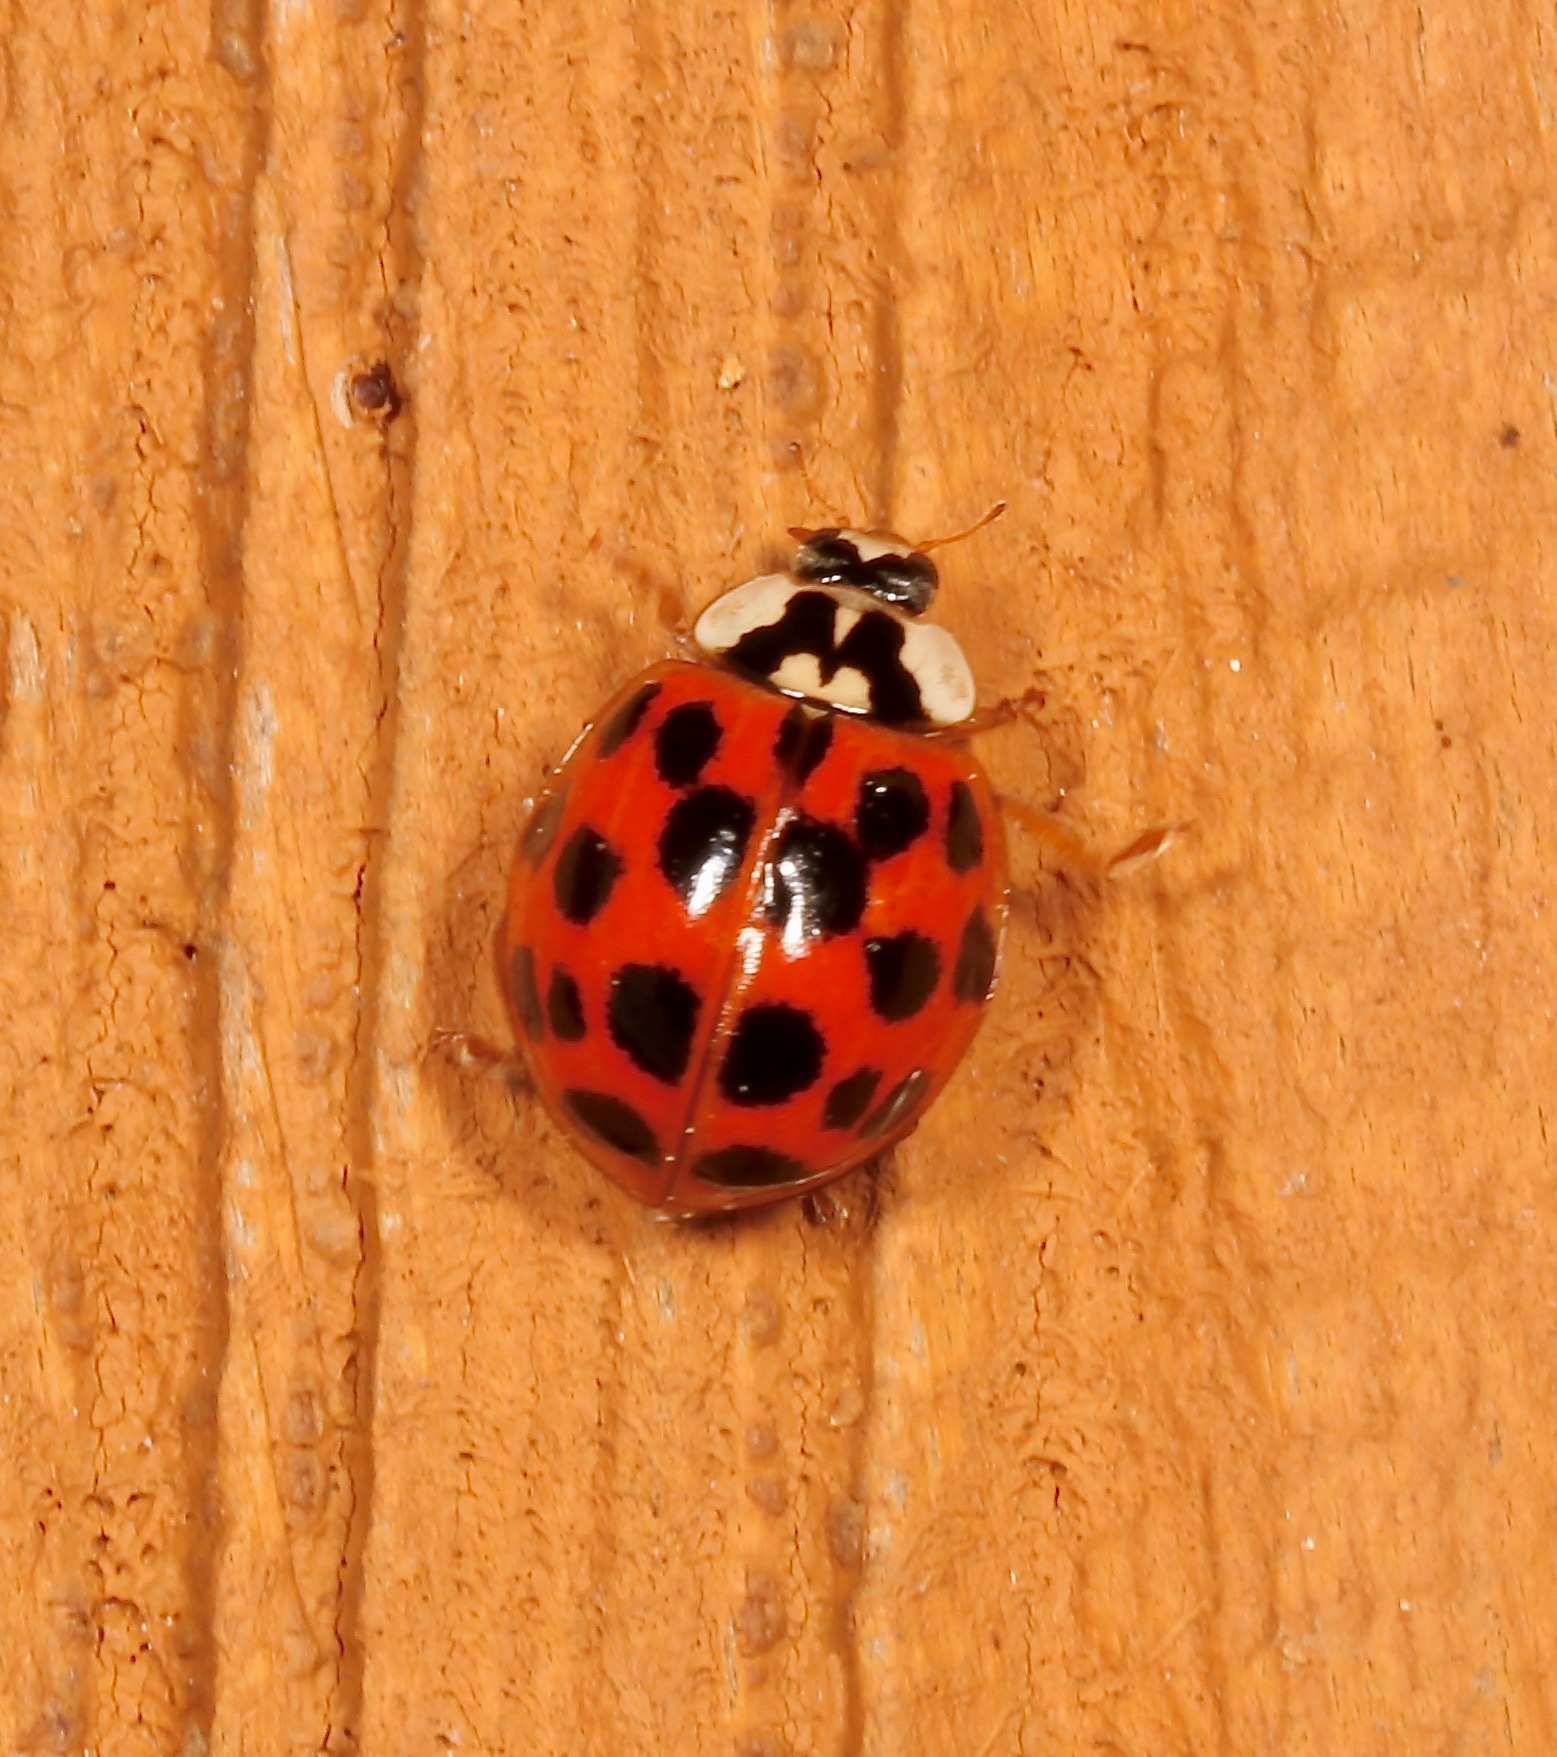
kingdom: Animalia
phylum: Arthropoda
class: Insecta
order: Coleoptera
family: Coccinellidae
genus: Harmonia
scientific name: Harmonia axyridis
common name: Harlequin ladybird
